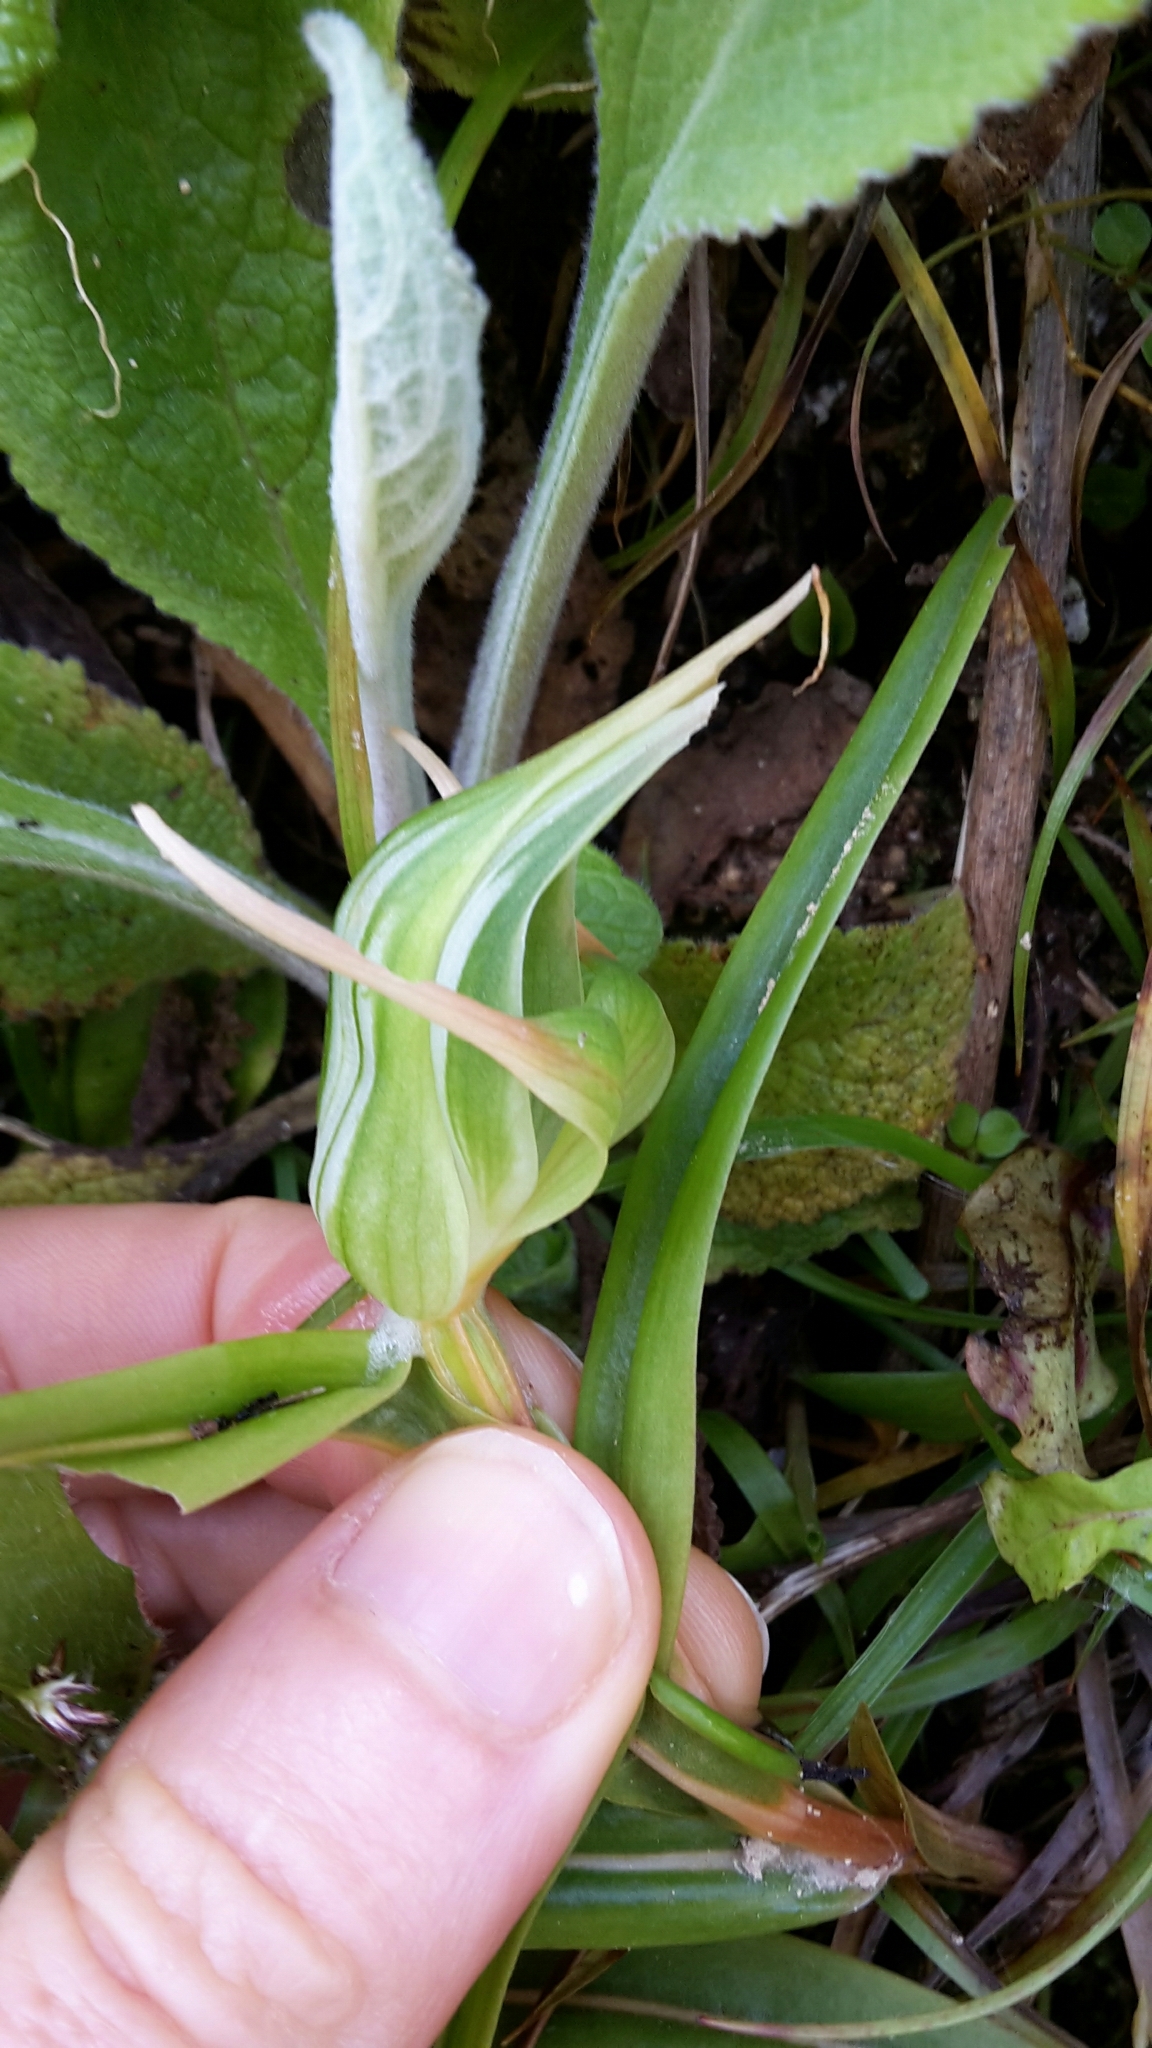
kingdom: Plantae
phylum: Tracheophyta
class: Liliopsida
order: Asparagales
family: Orchidaceae
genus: Pterostylis
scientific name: Pterostylis banksii
